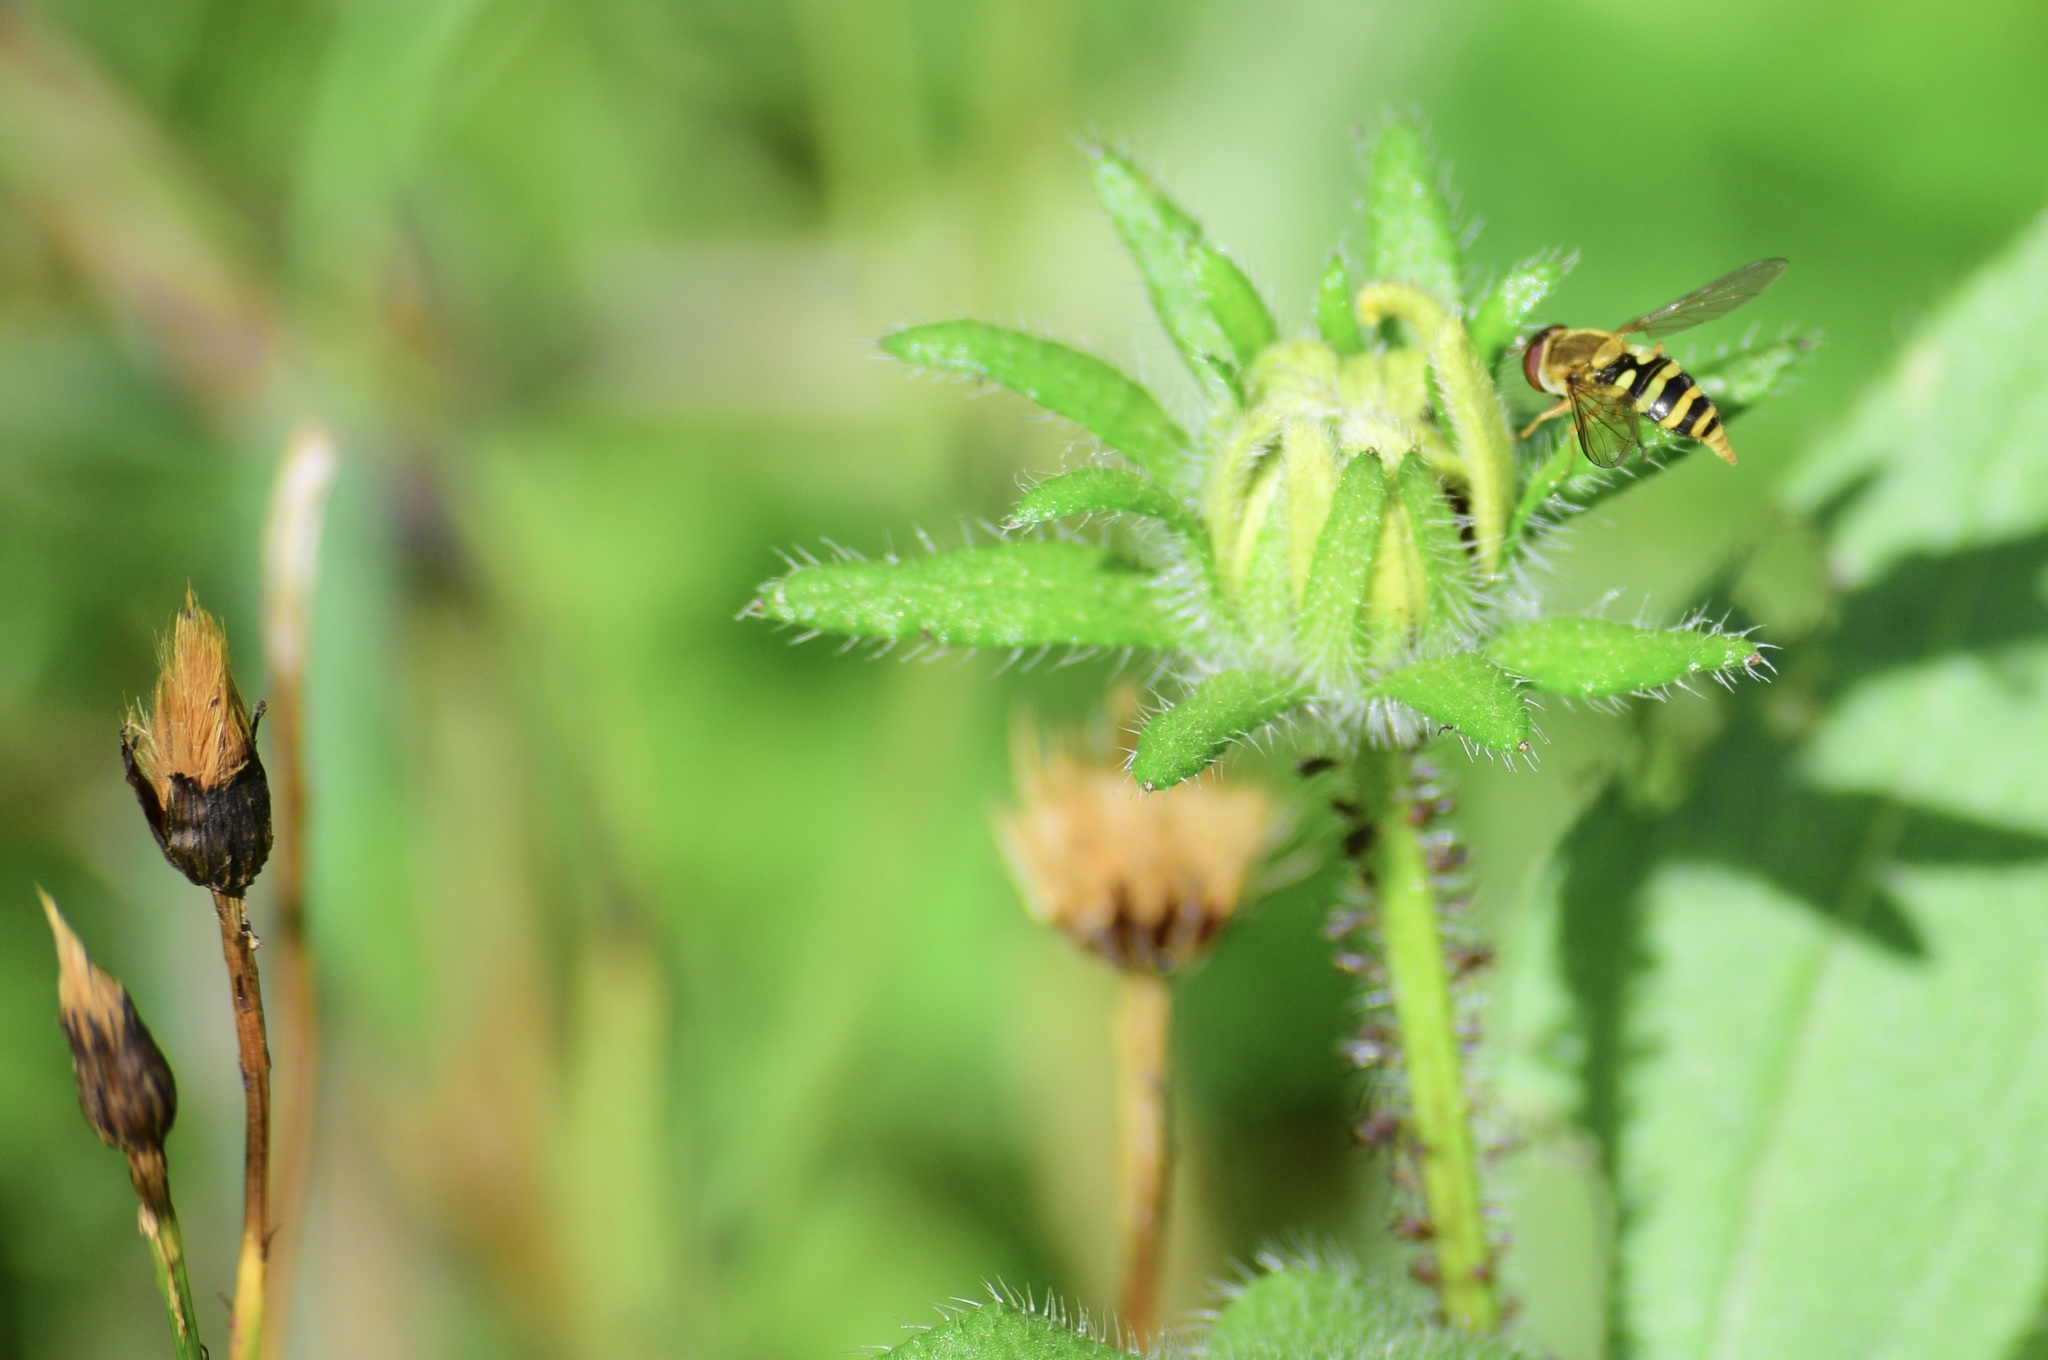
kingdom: Animalia
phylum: Arthropoda
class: Insecta
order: Diptera
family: Syrphidae
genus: Syrphus
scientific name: Syrphus
